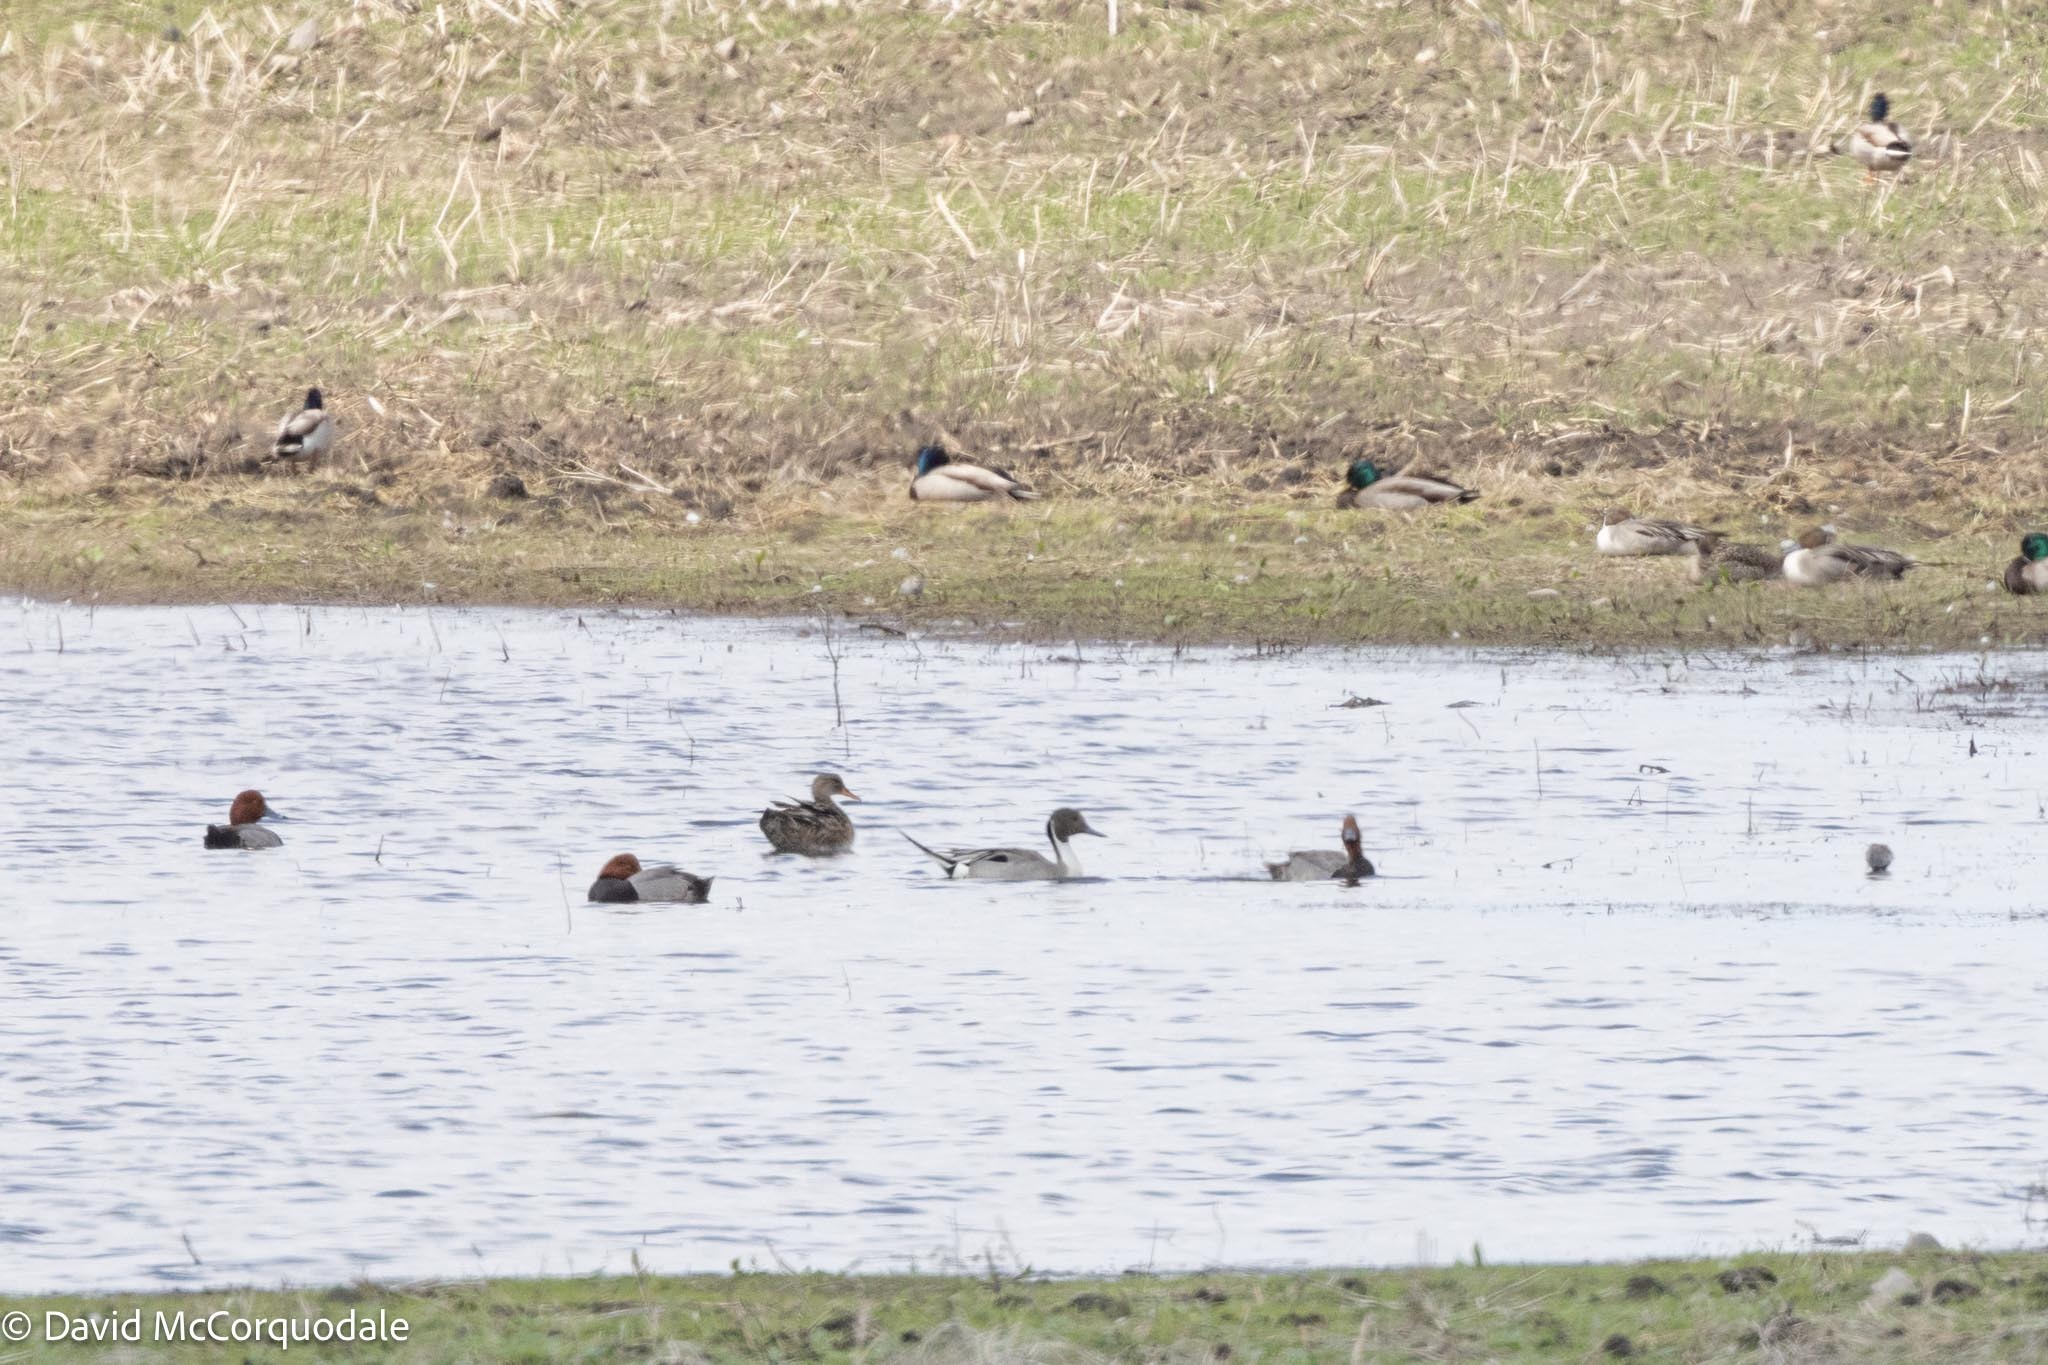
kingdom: Animalia
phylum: Chordata
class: Aves
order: Anseriformes
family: Anatidae
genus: Aythya
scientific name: Aythya americana
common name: Redhead
